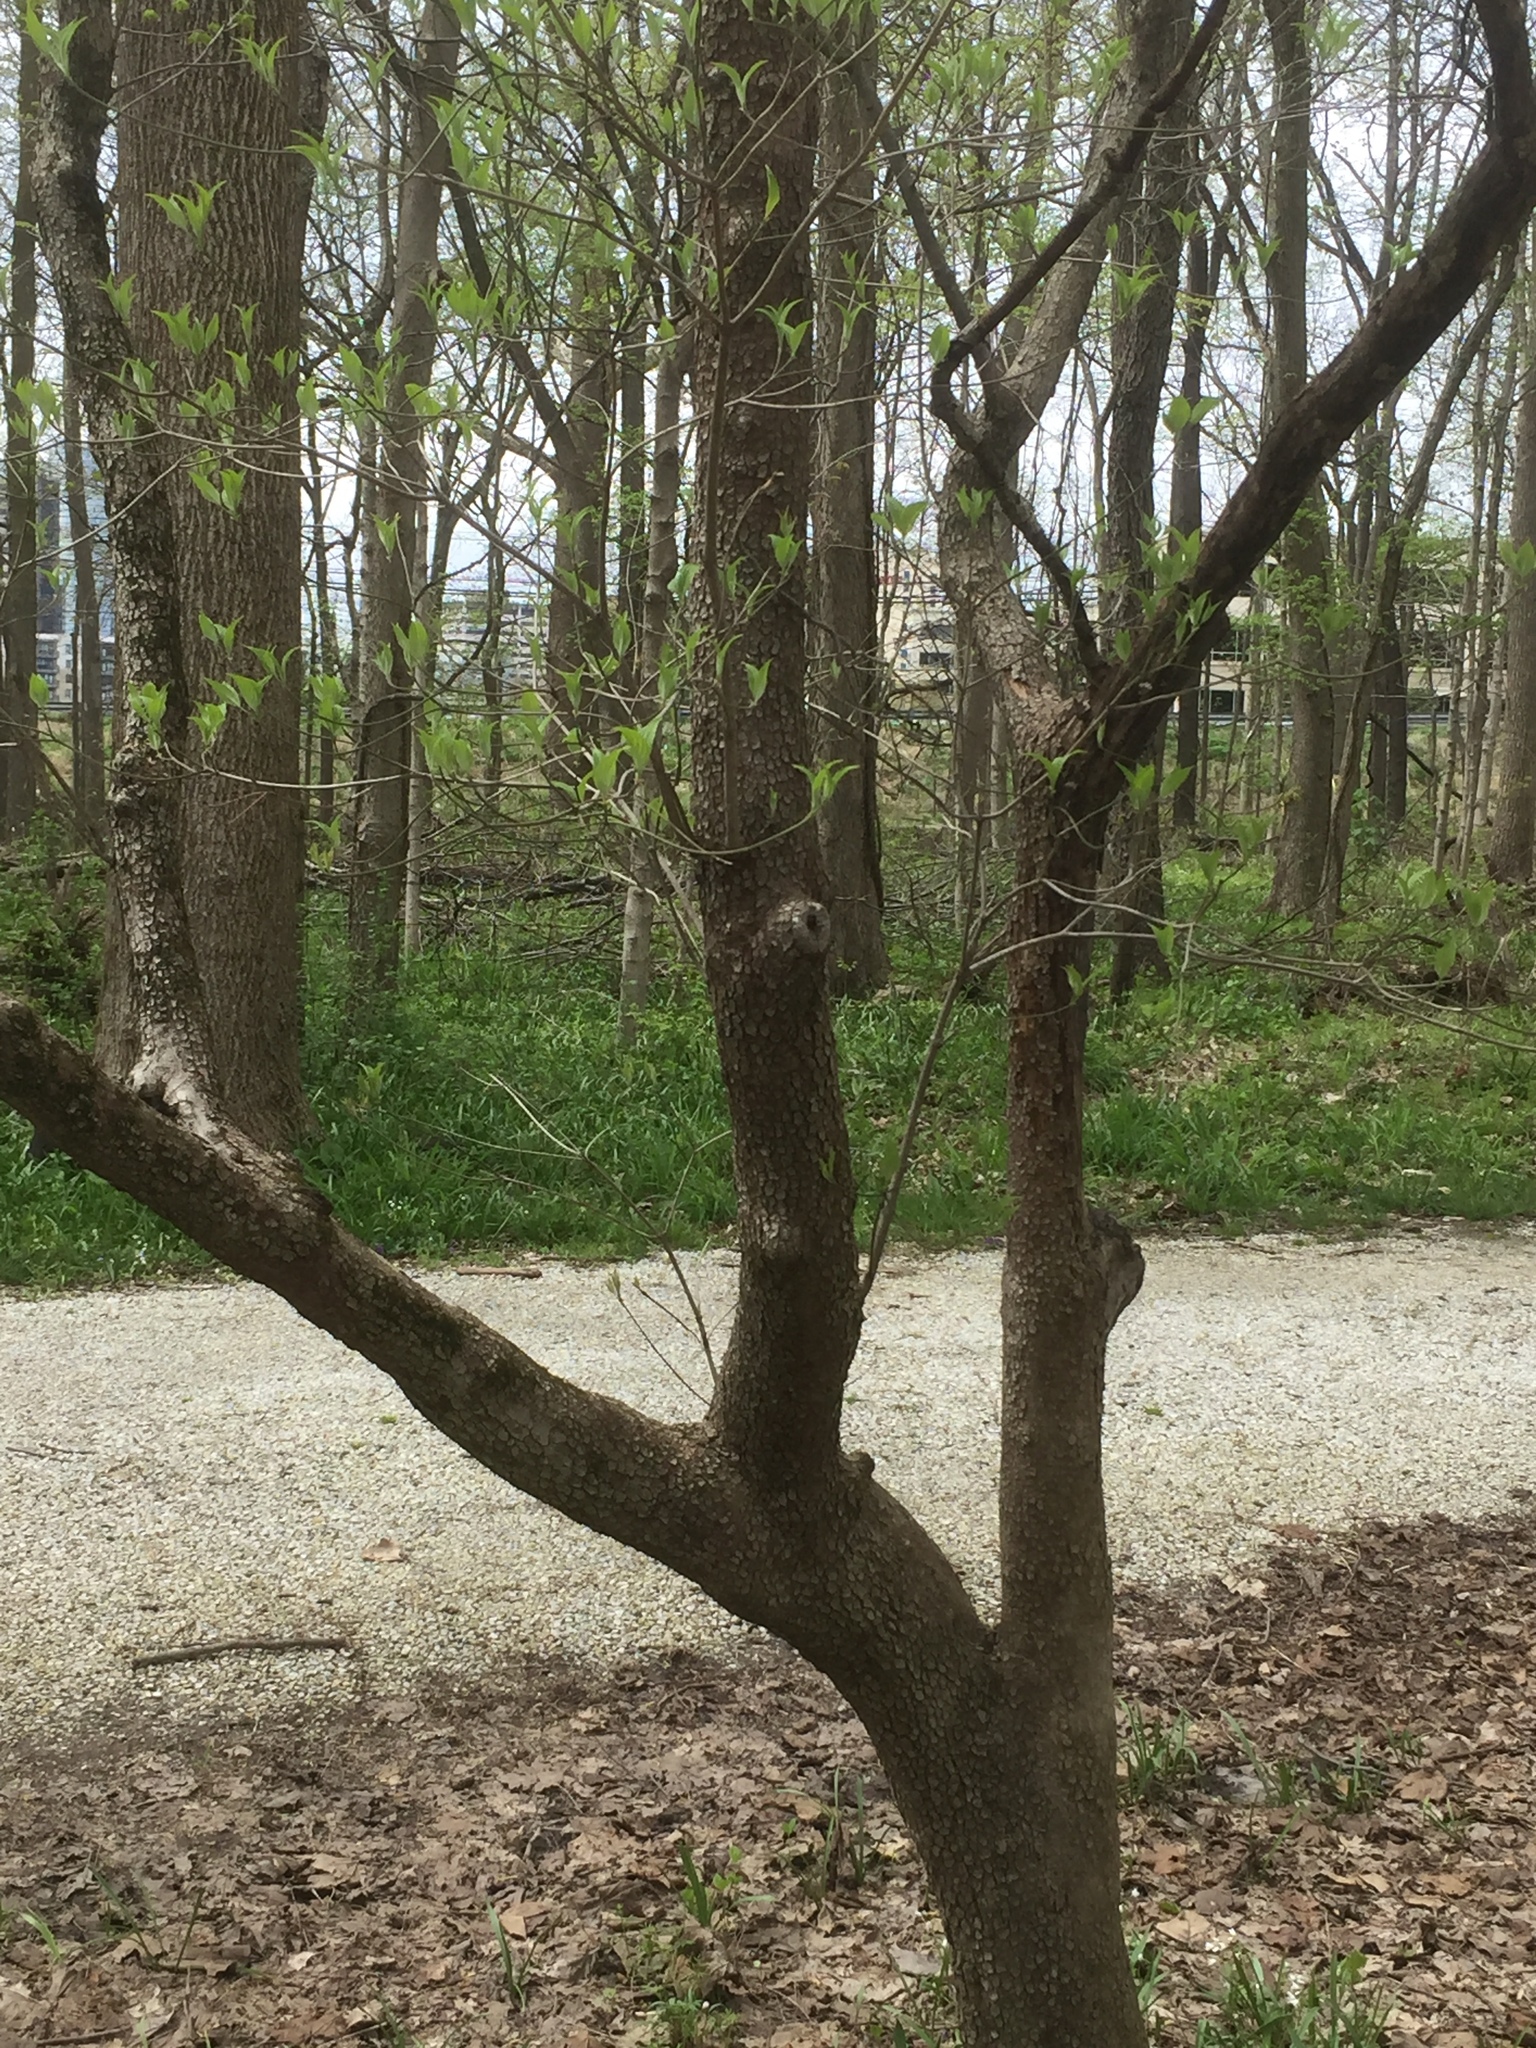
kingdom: Plantae
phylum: Tracheophyta
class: Magnoliopsida
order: Cornales
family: Cornaceae
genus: Cornus
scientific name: Cornus florida
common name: Flowering dogwood
